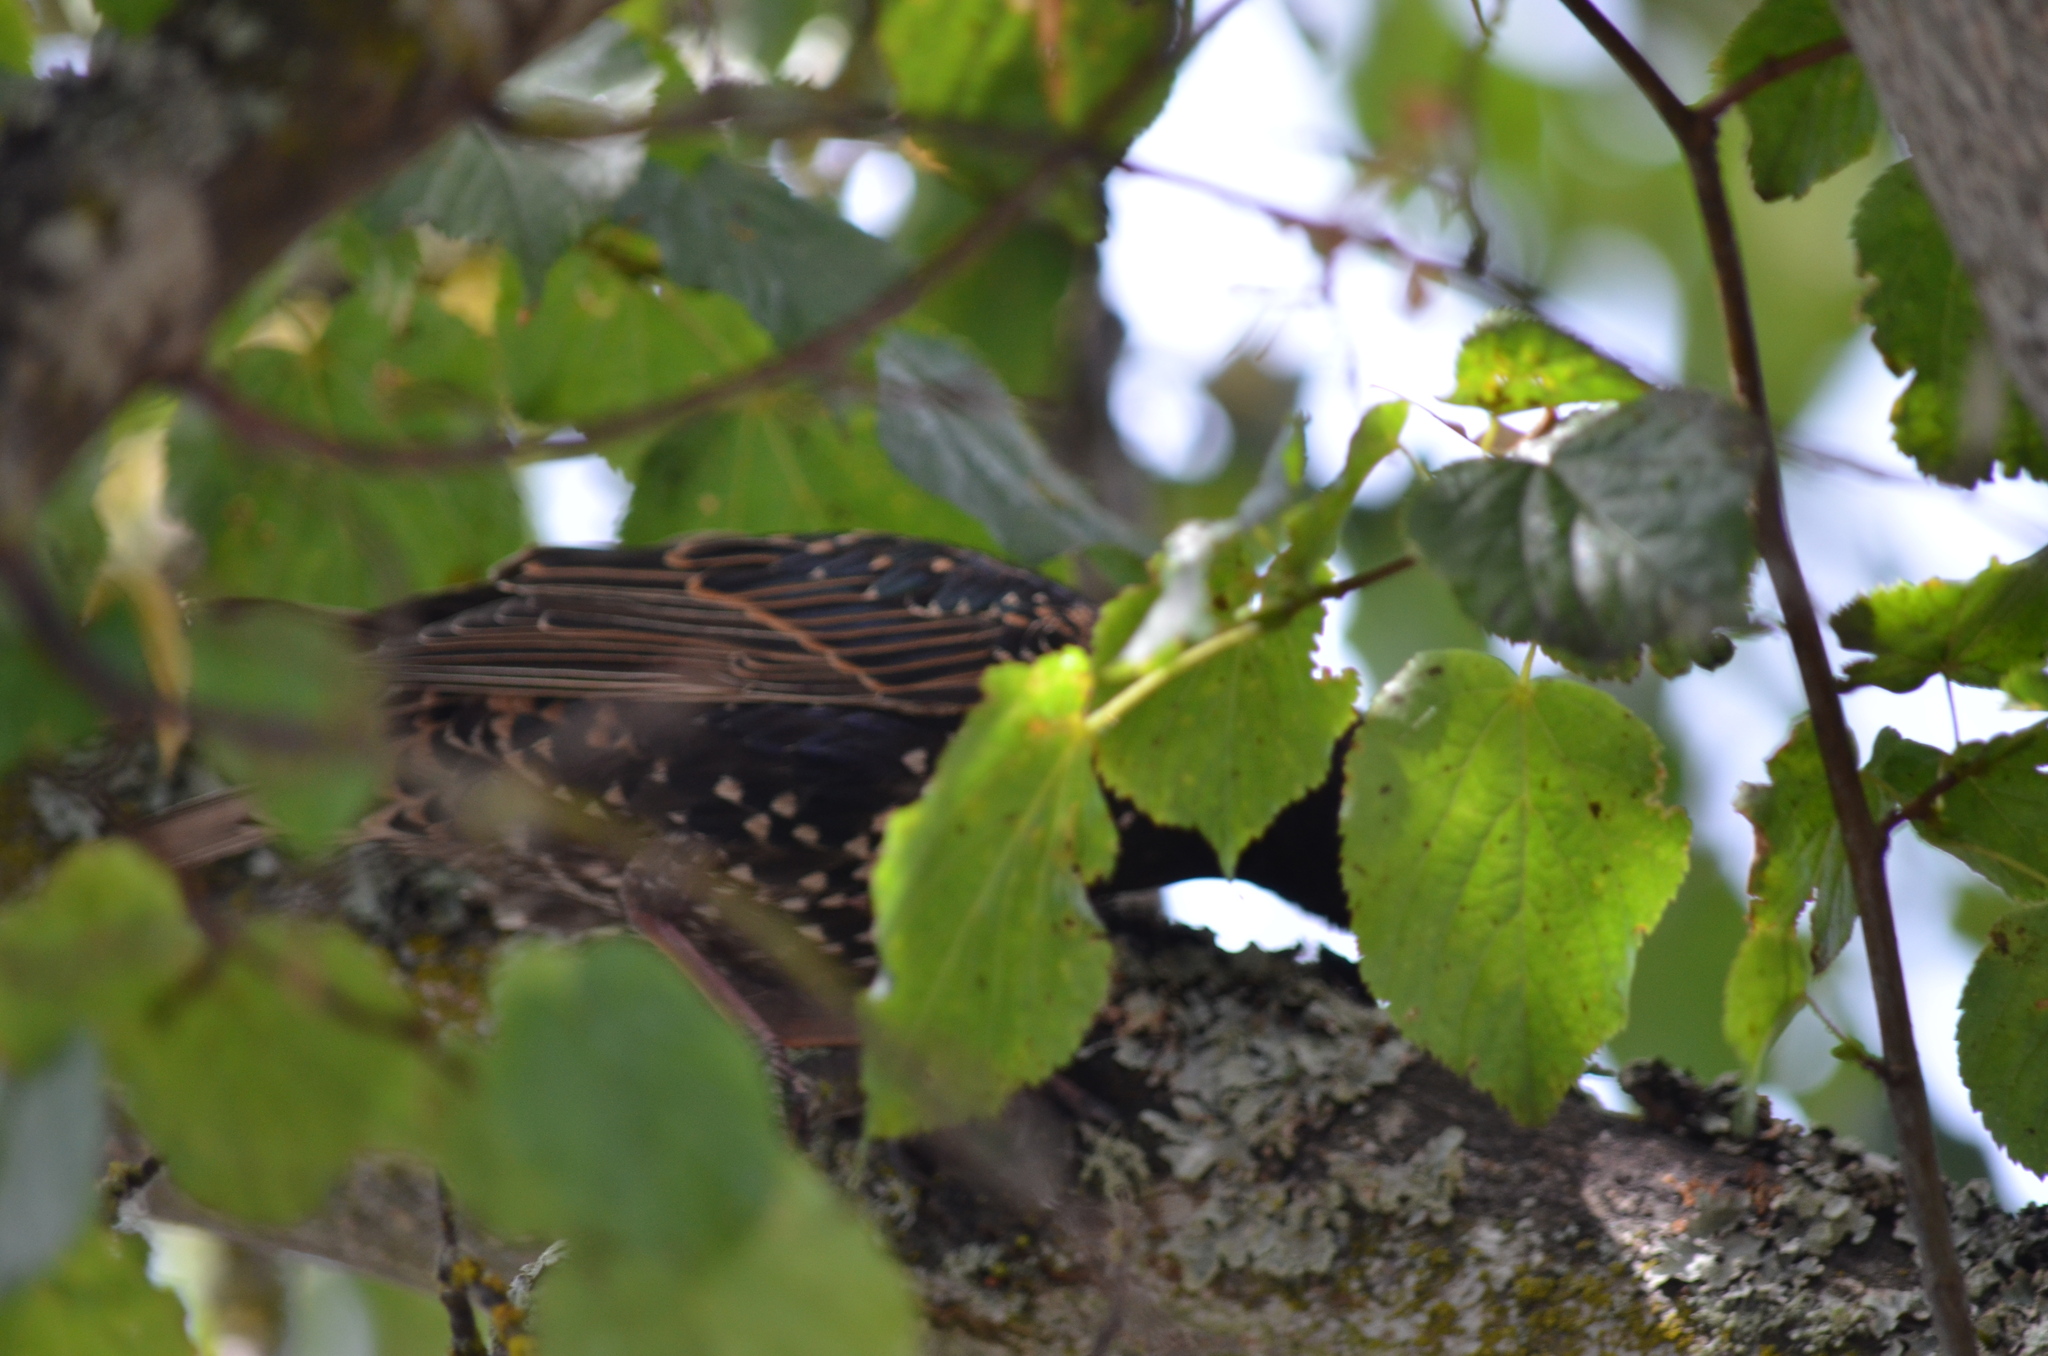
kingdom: Animalia
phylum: Chordata
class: Aves
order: Passeriformes
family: Sturnidae
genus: Sturnus
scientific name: Sturnus vulgaris
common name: Common starling
